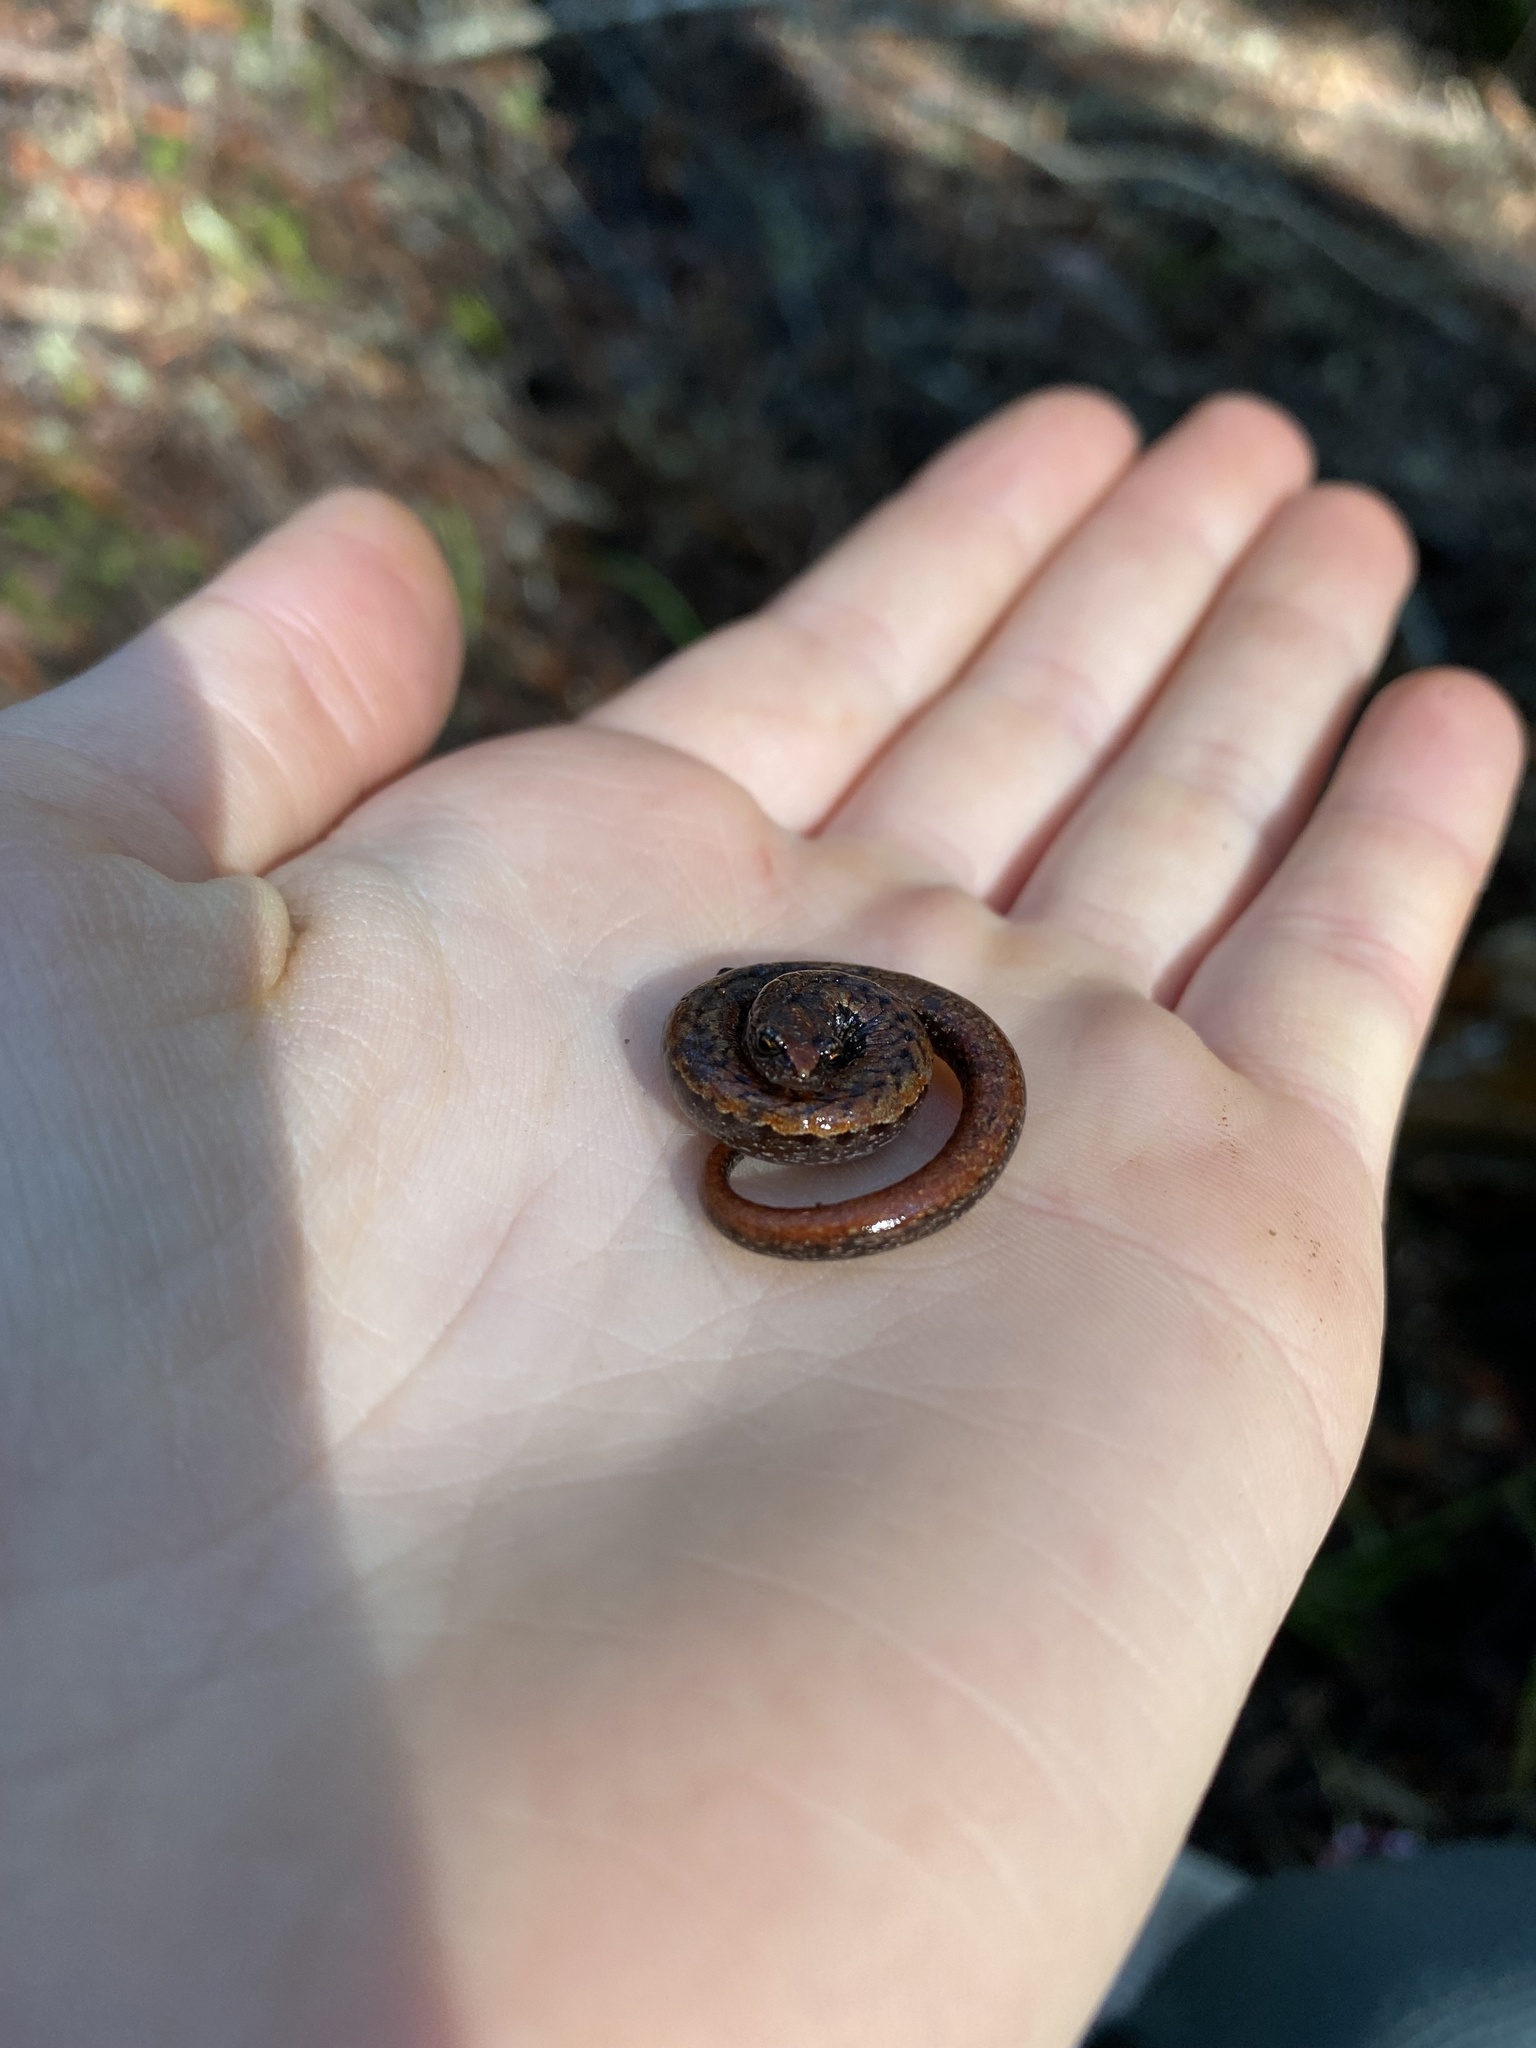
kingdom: Animalia
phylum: Chordata
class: Amphibia
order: Caudata
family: Plethodontidae
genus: Batrachoseps
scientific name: Batrachoseps attenuatus
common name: California slender salamander
